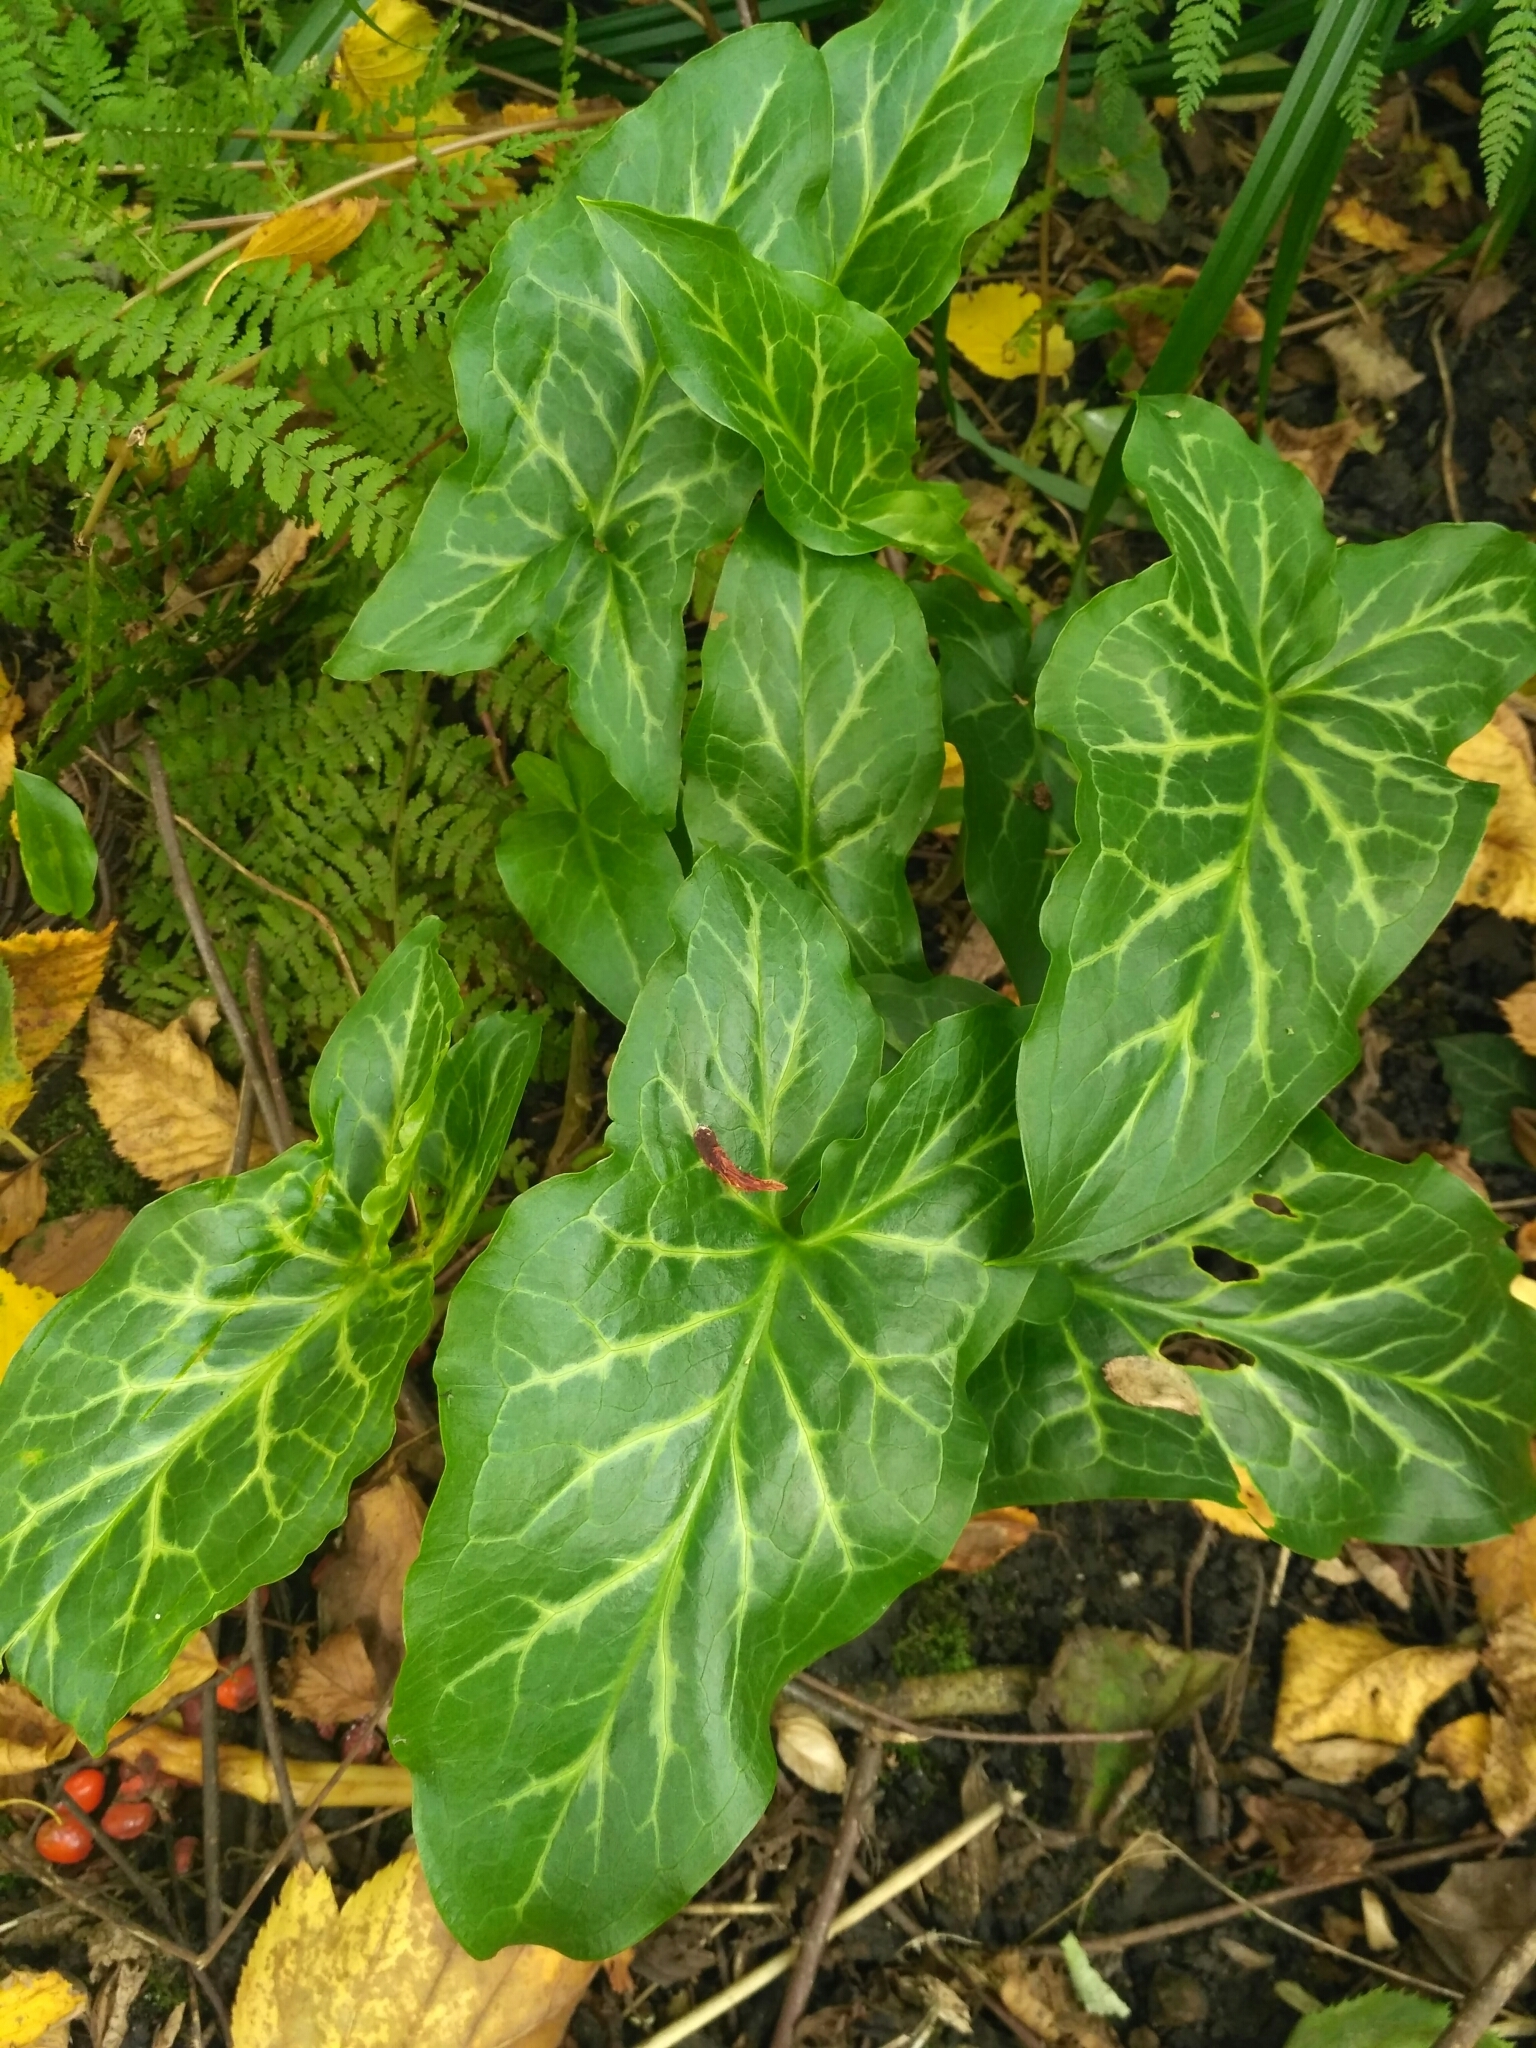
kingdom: Plantae
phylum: Tracheophyta
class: Liliopsida
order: Alismatales
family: Araceae
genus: Arum
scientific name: Arum italicum
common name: Italian lords-and-ladies
